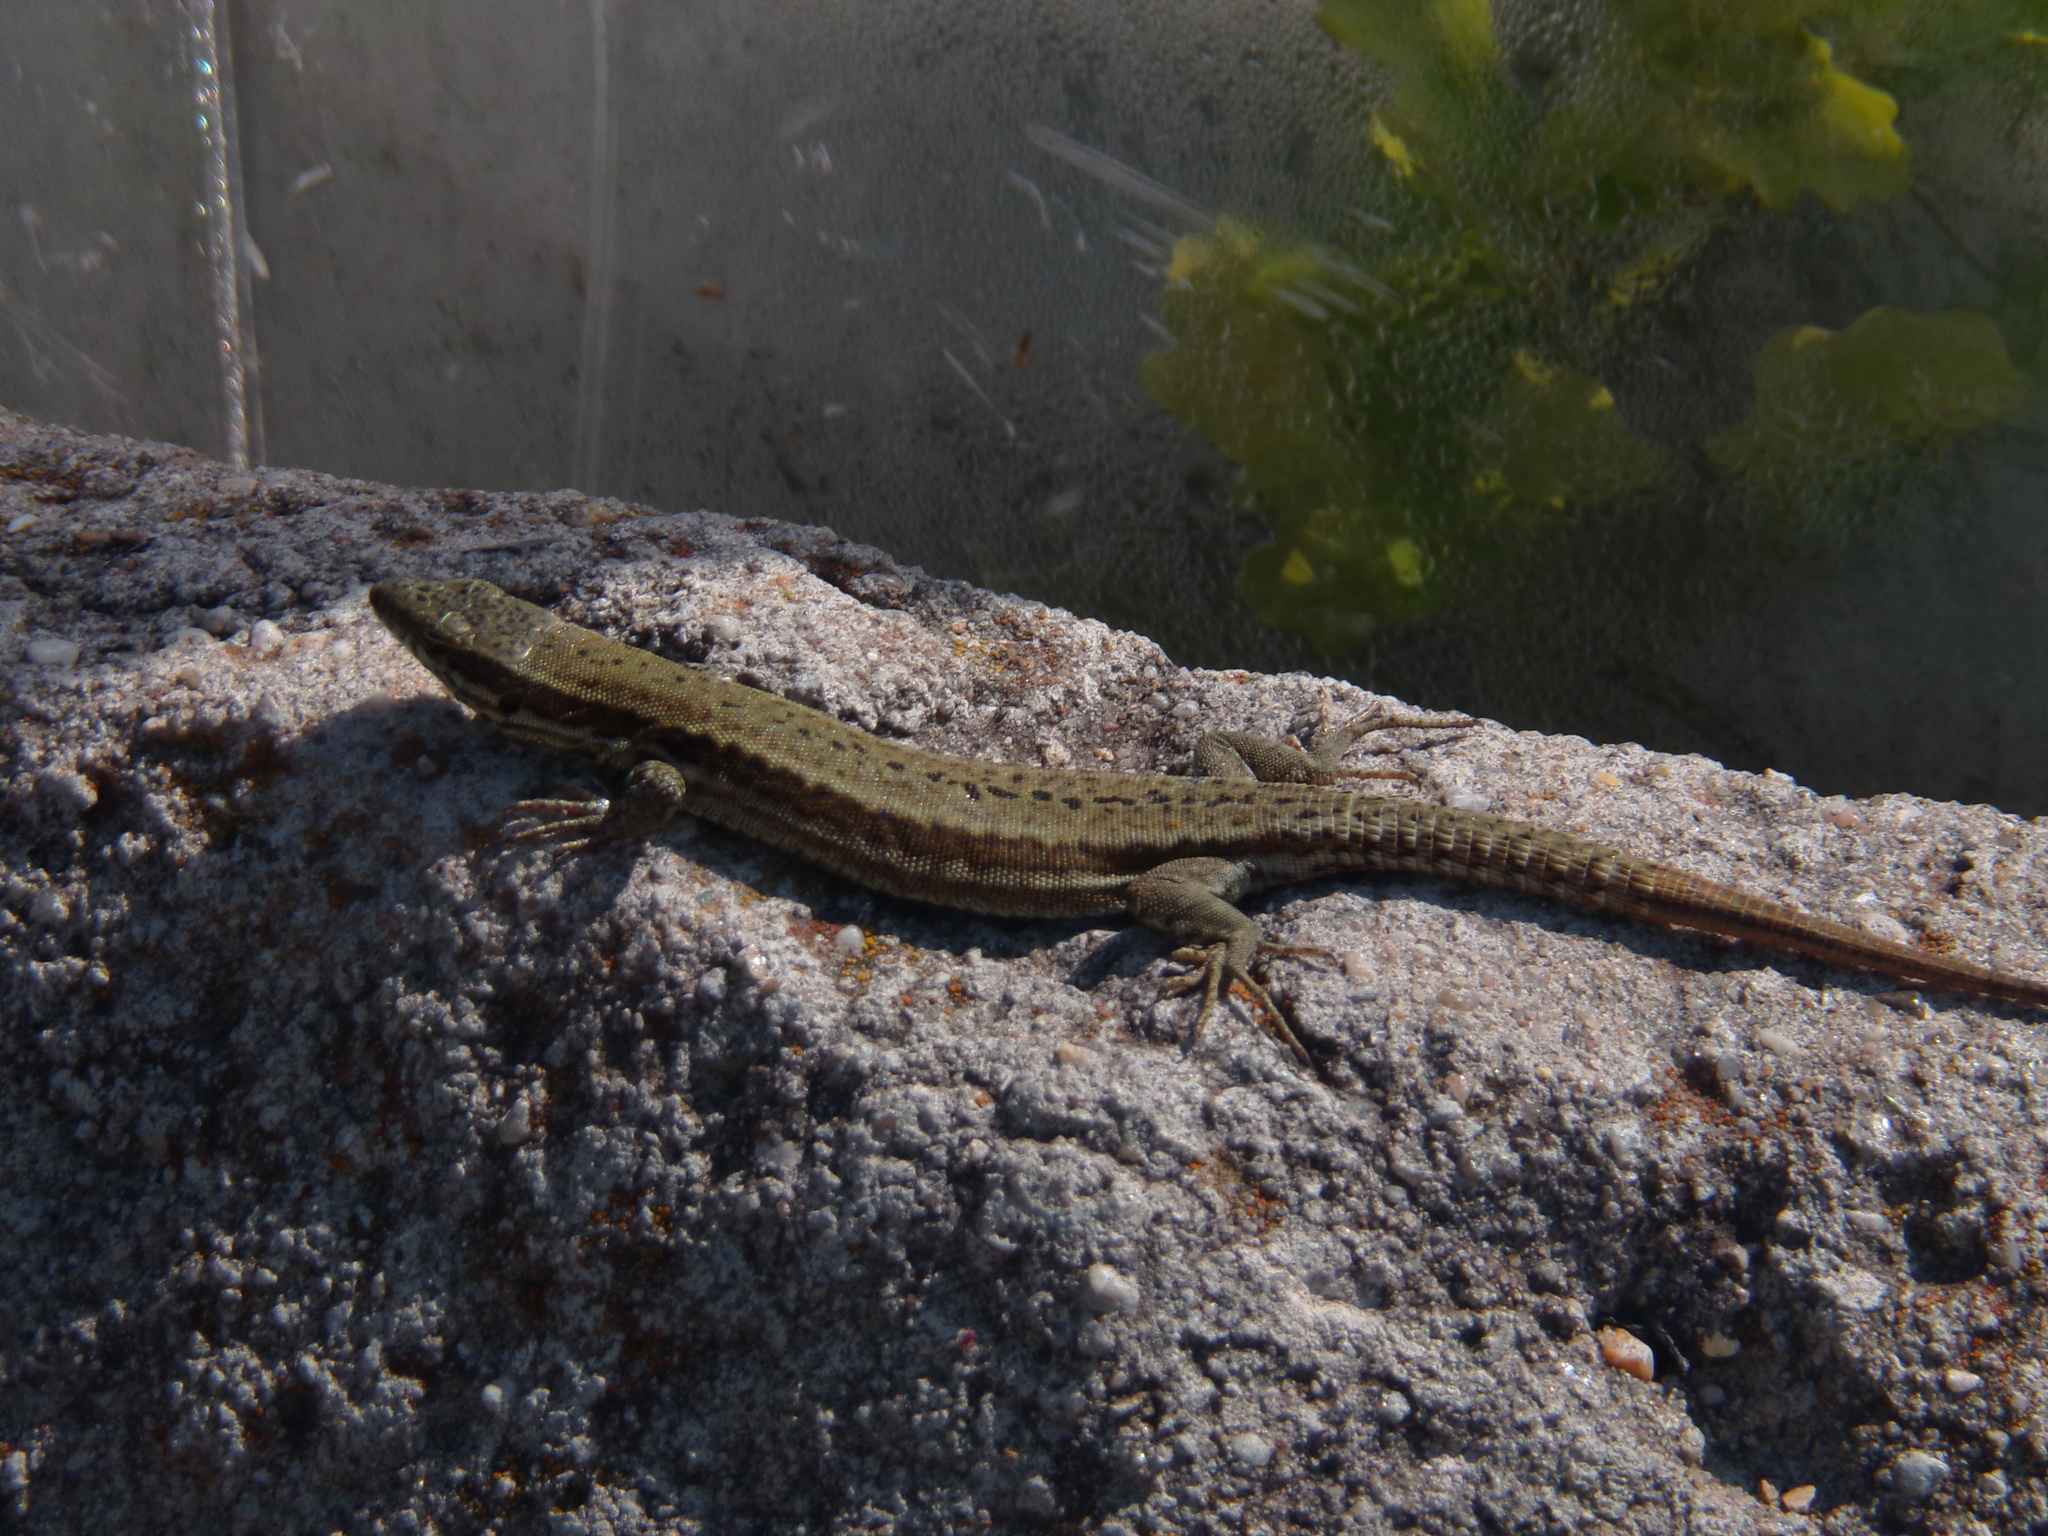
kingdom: Animalia
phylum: Chordata
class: Squamata
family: Lacertidae
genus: Podarcis
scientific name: Podarcis muralis
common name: Common wall lizard
